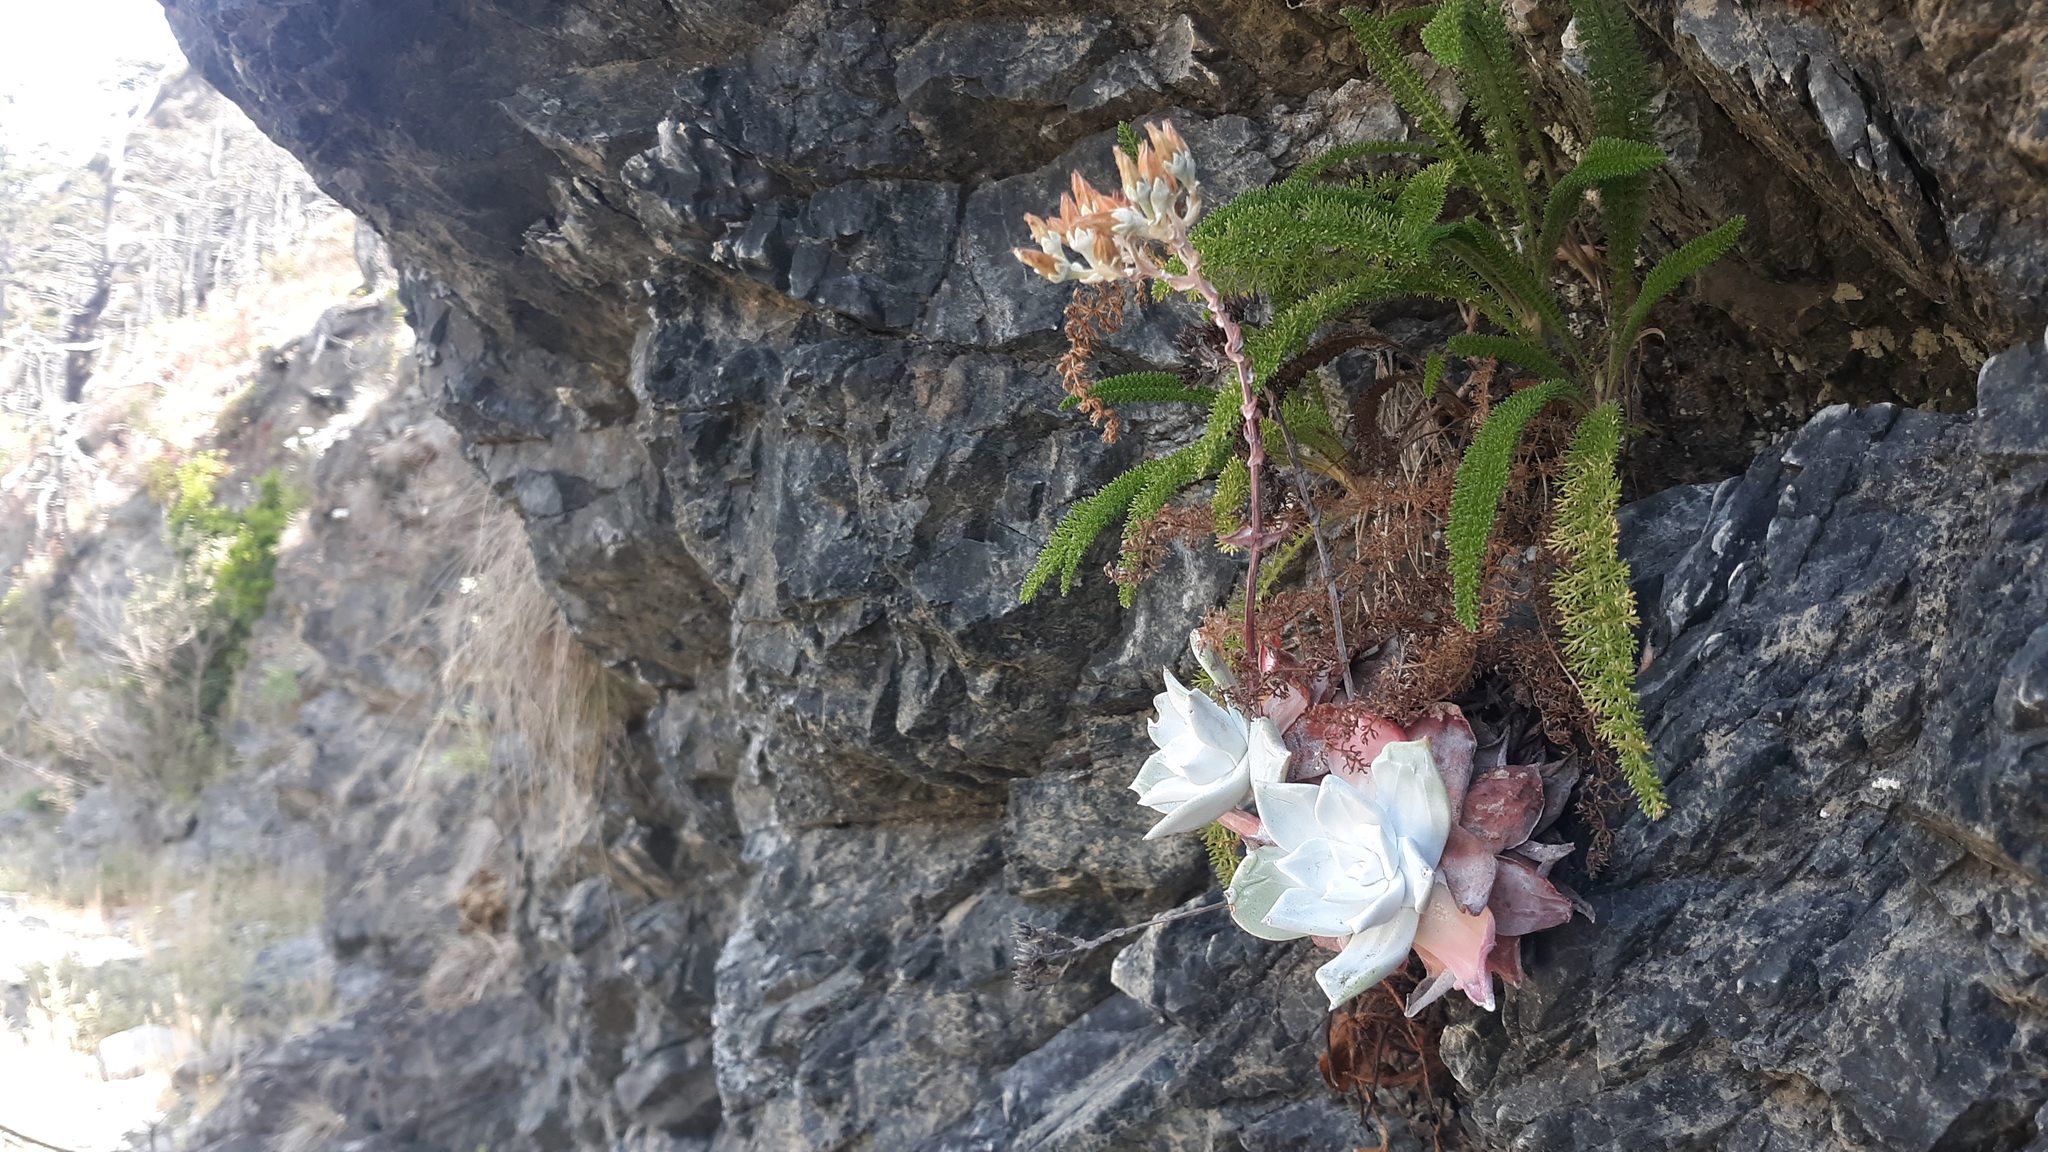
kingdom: Plantae
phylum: Tracheophyta
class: Magnoliopsida
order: Saxifragales
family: Crassulaceae
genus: Dudleya
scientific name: Dudleya farinosa
